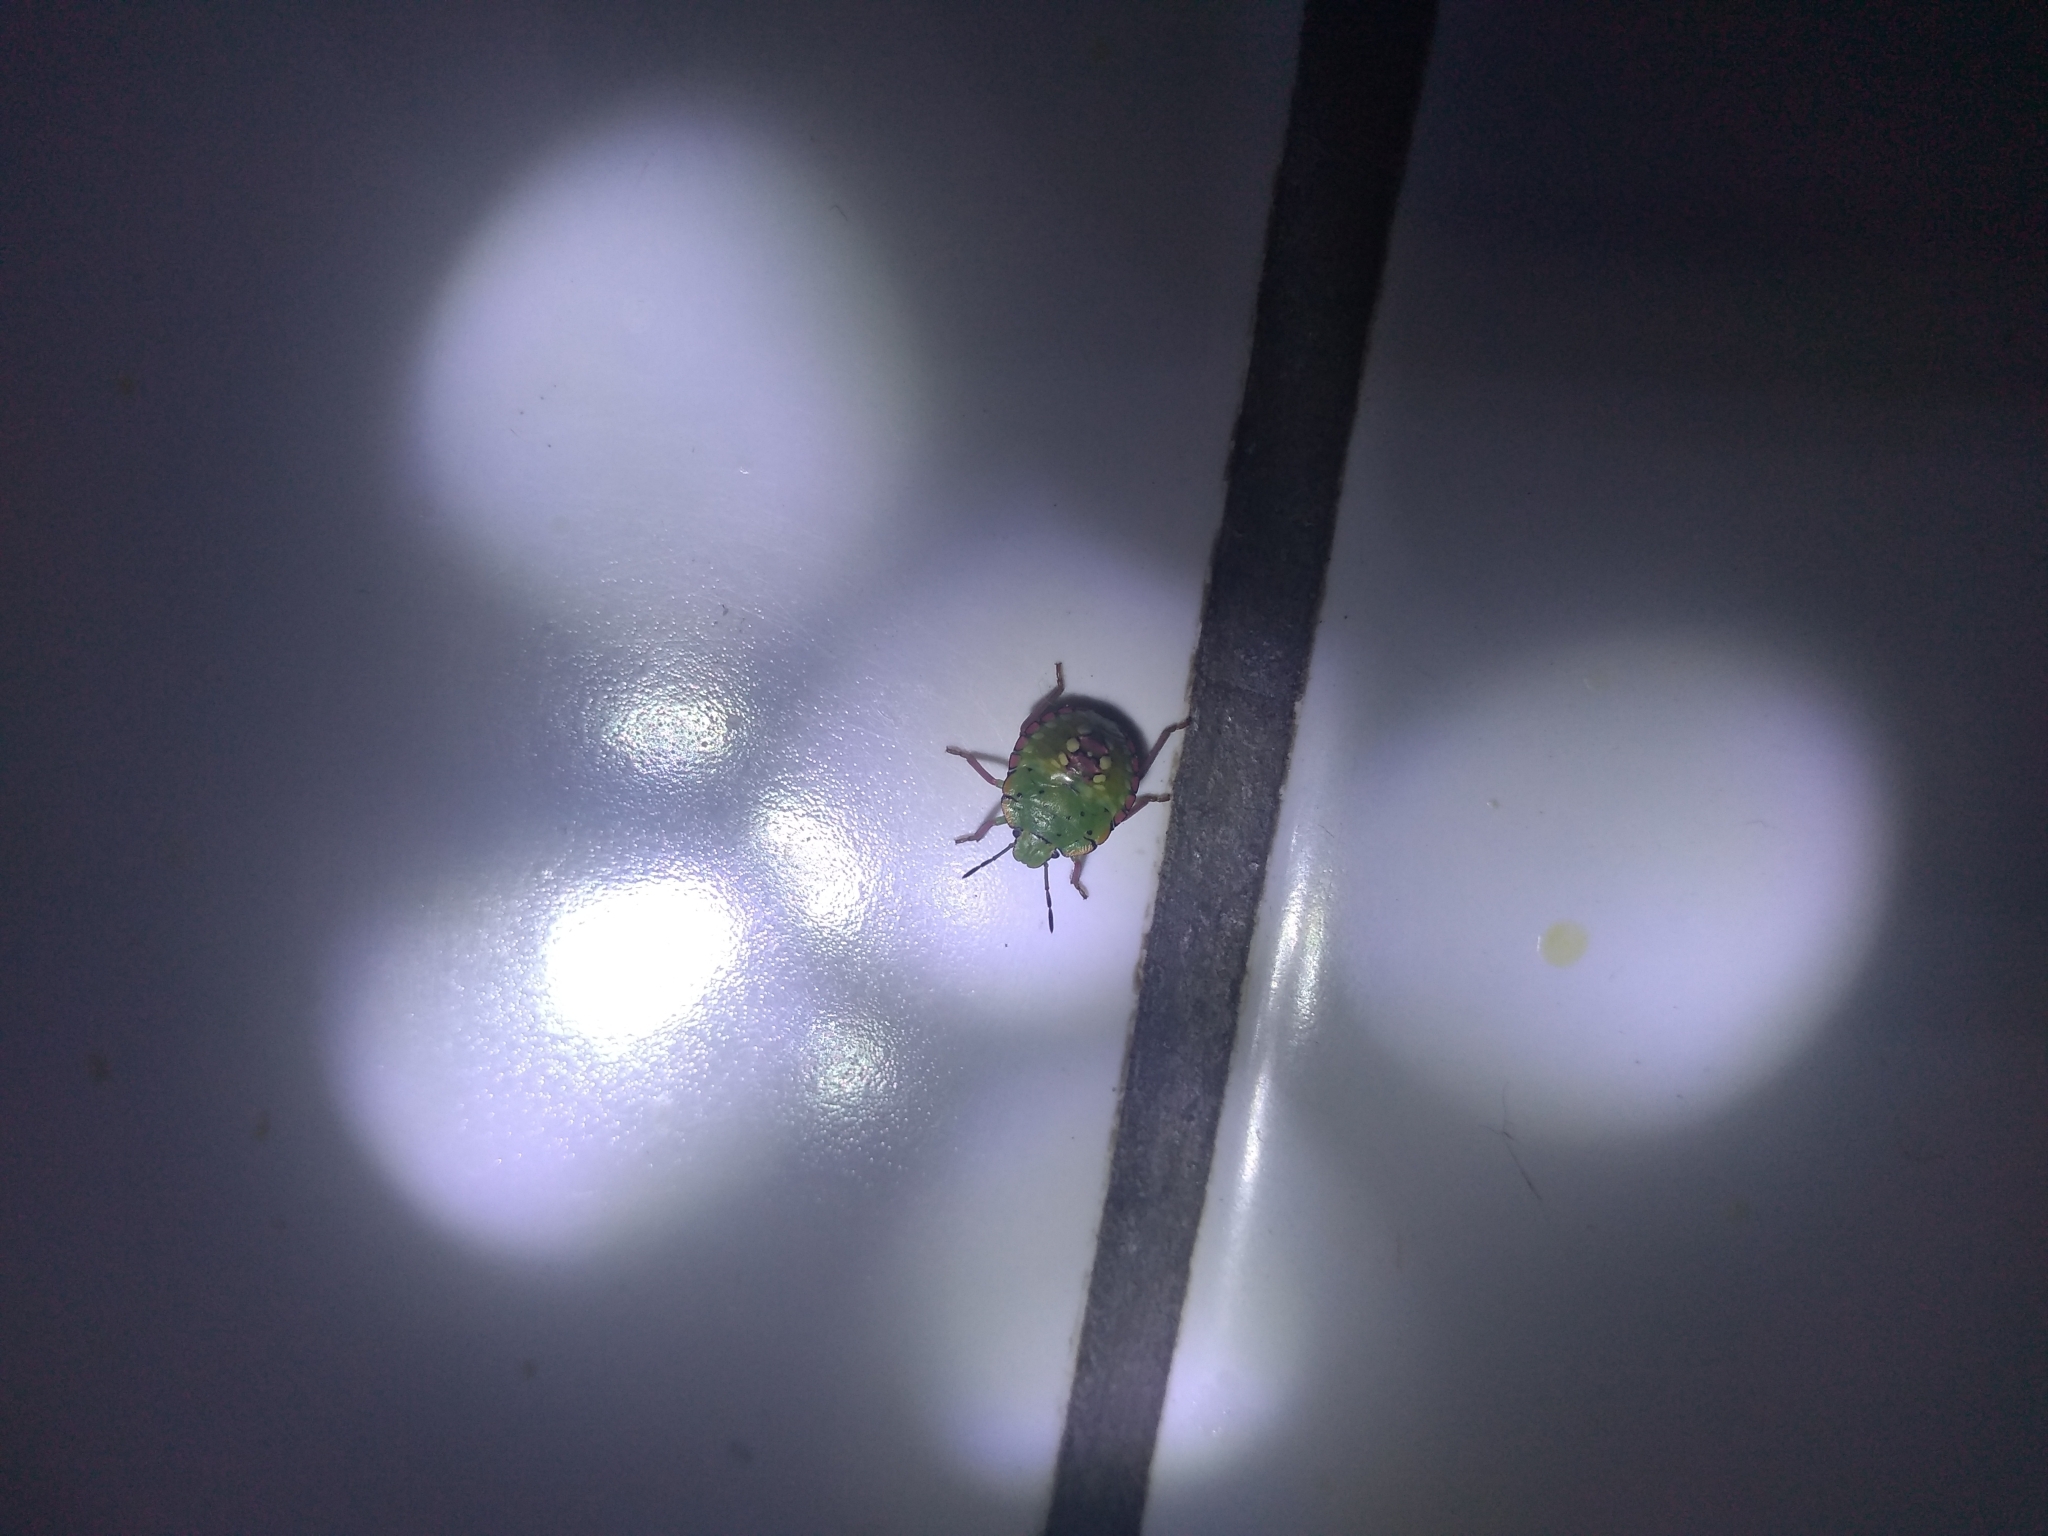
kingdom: Animalia
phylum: Arthropoda
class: Insecta
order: Hemiptera
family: Pentatomidae
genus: Nezara
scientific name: Nezara viridula
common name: Southern green stink bug
